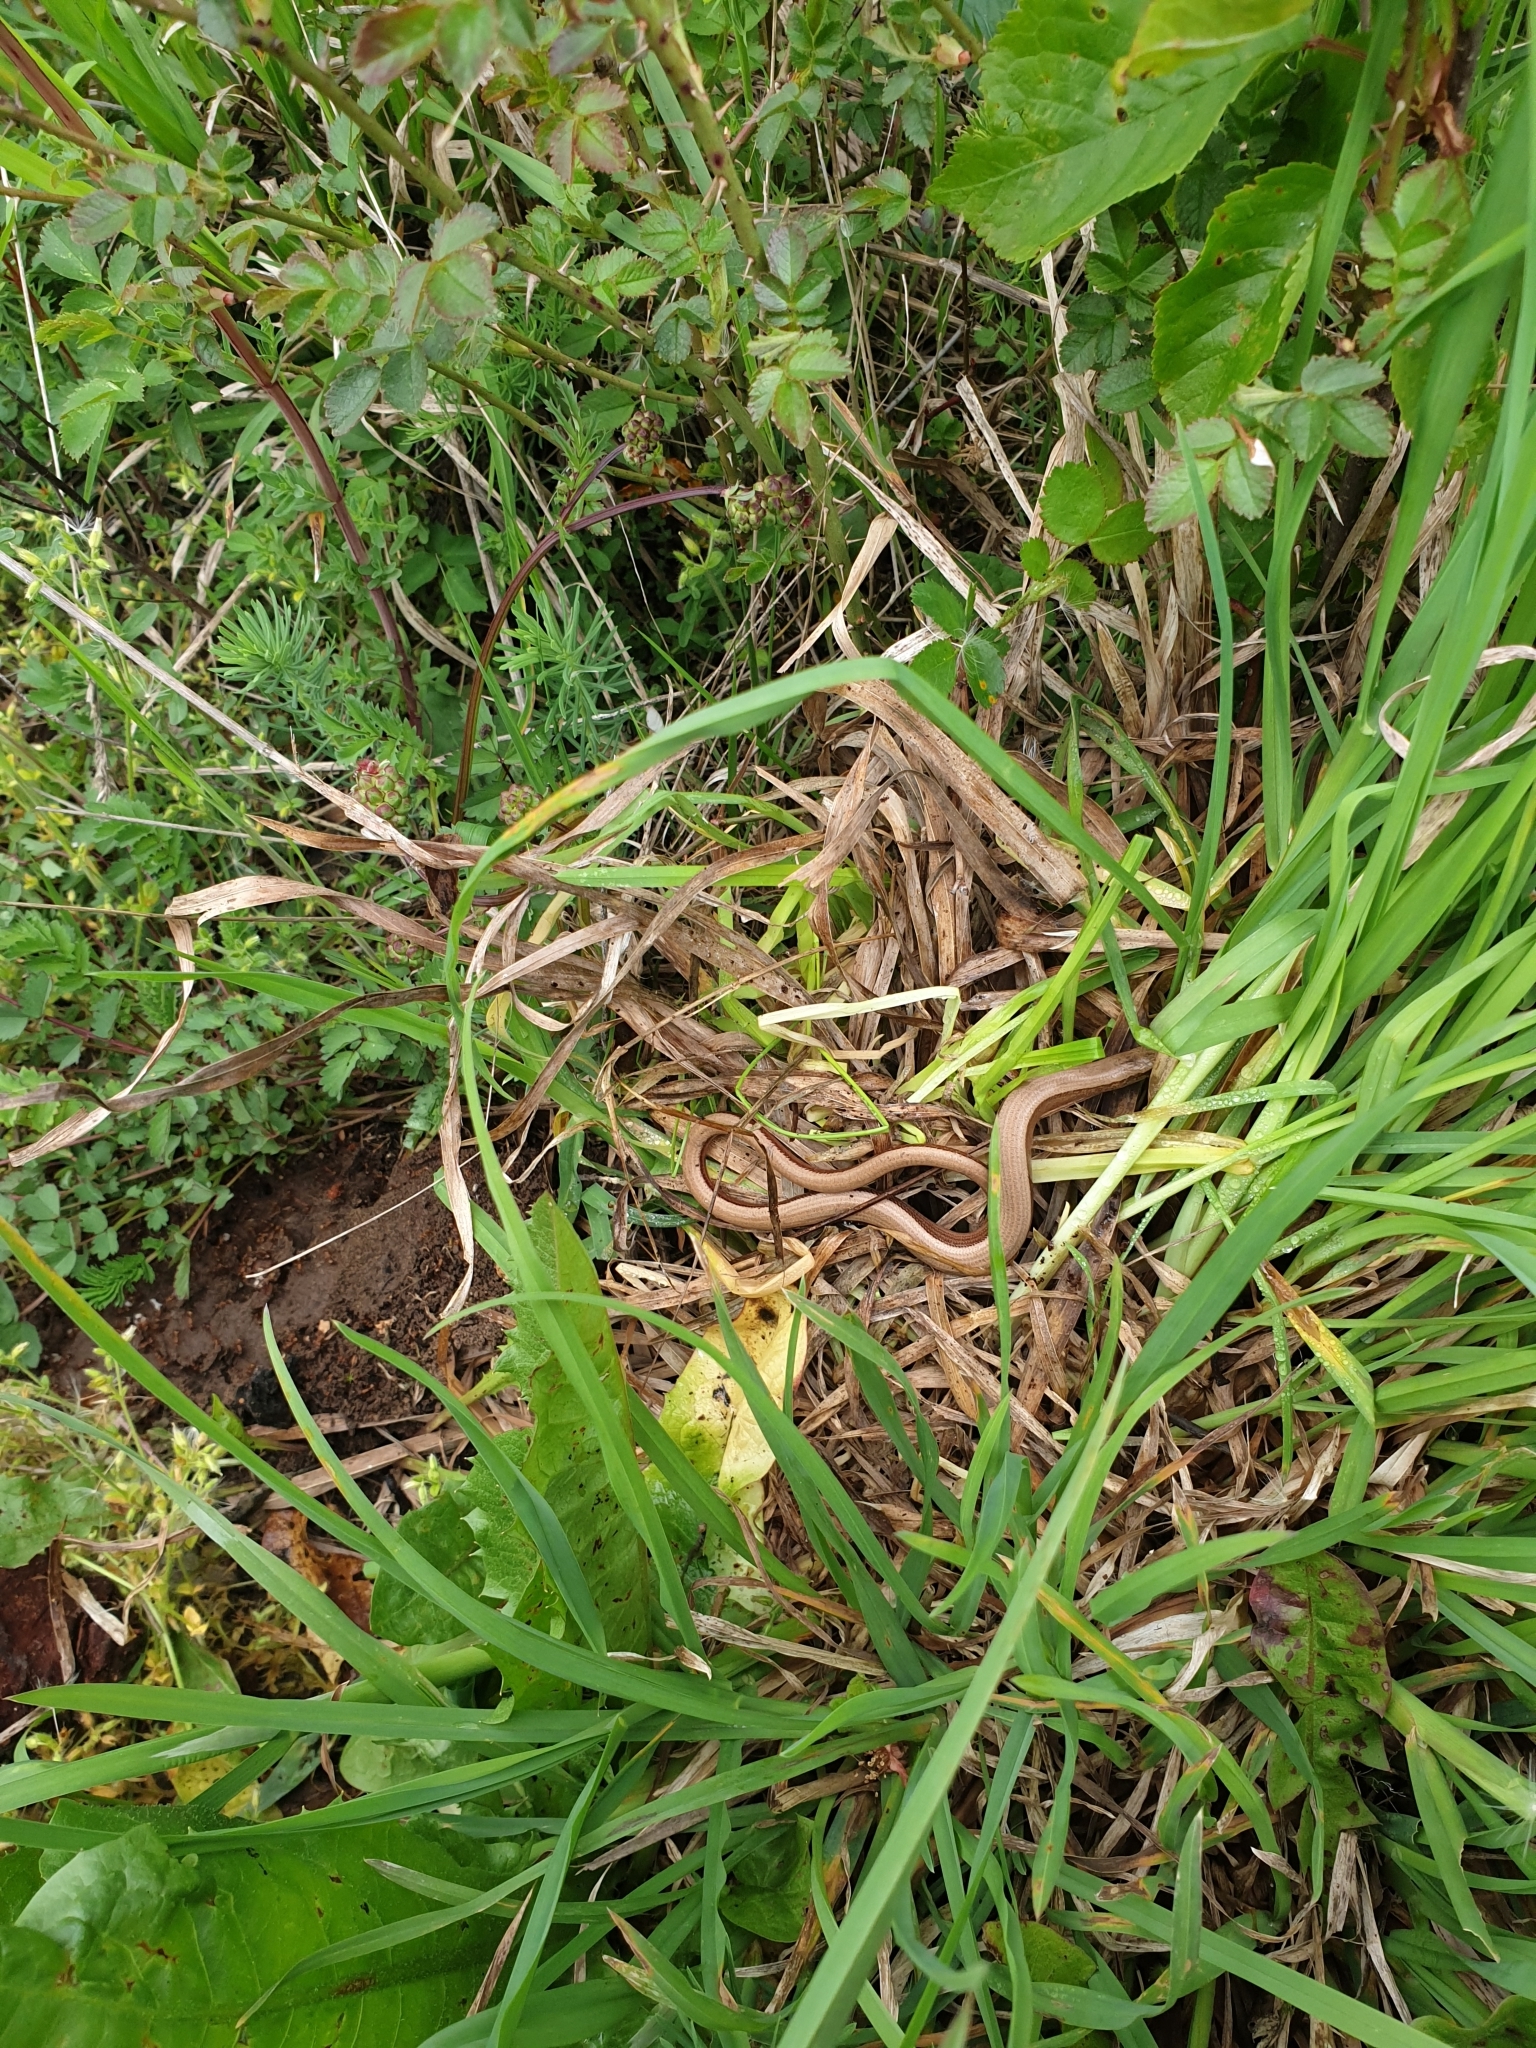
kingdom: Animalia
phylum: Chordata
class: Squamata
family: Anguidae
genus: Anguis
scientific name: Anguis fragilis
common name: Slow worm
